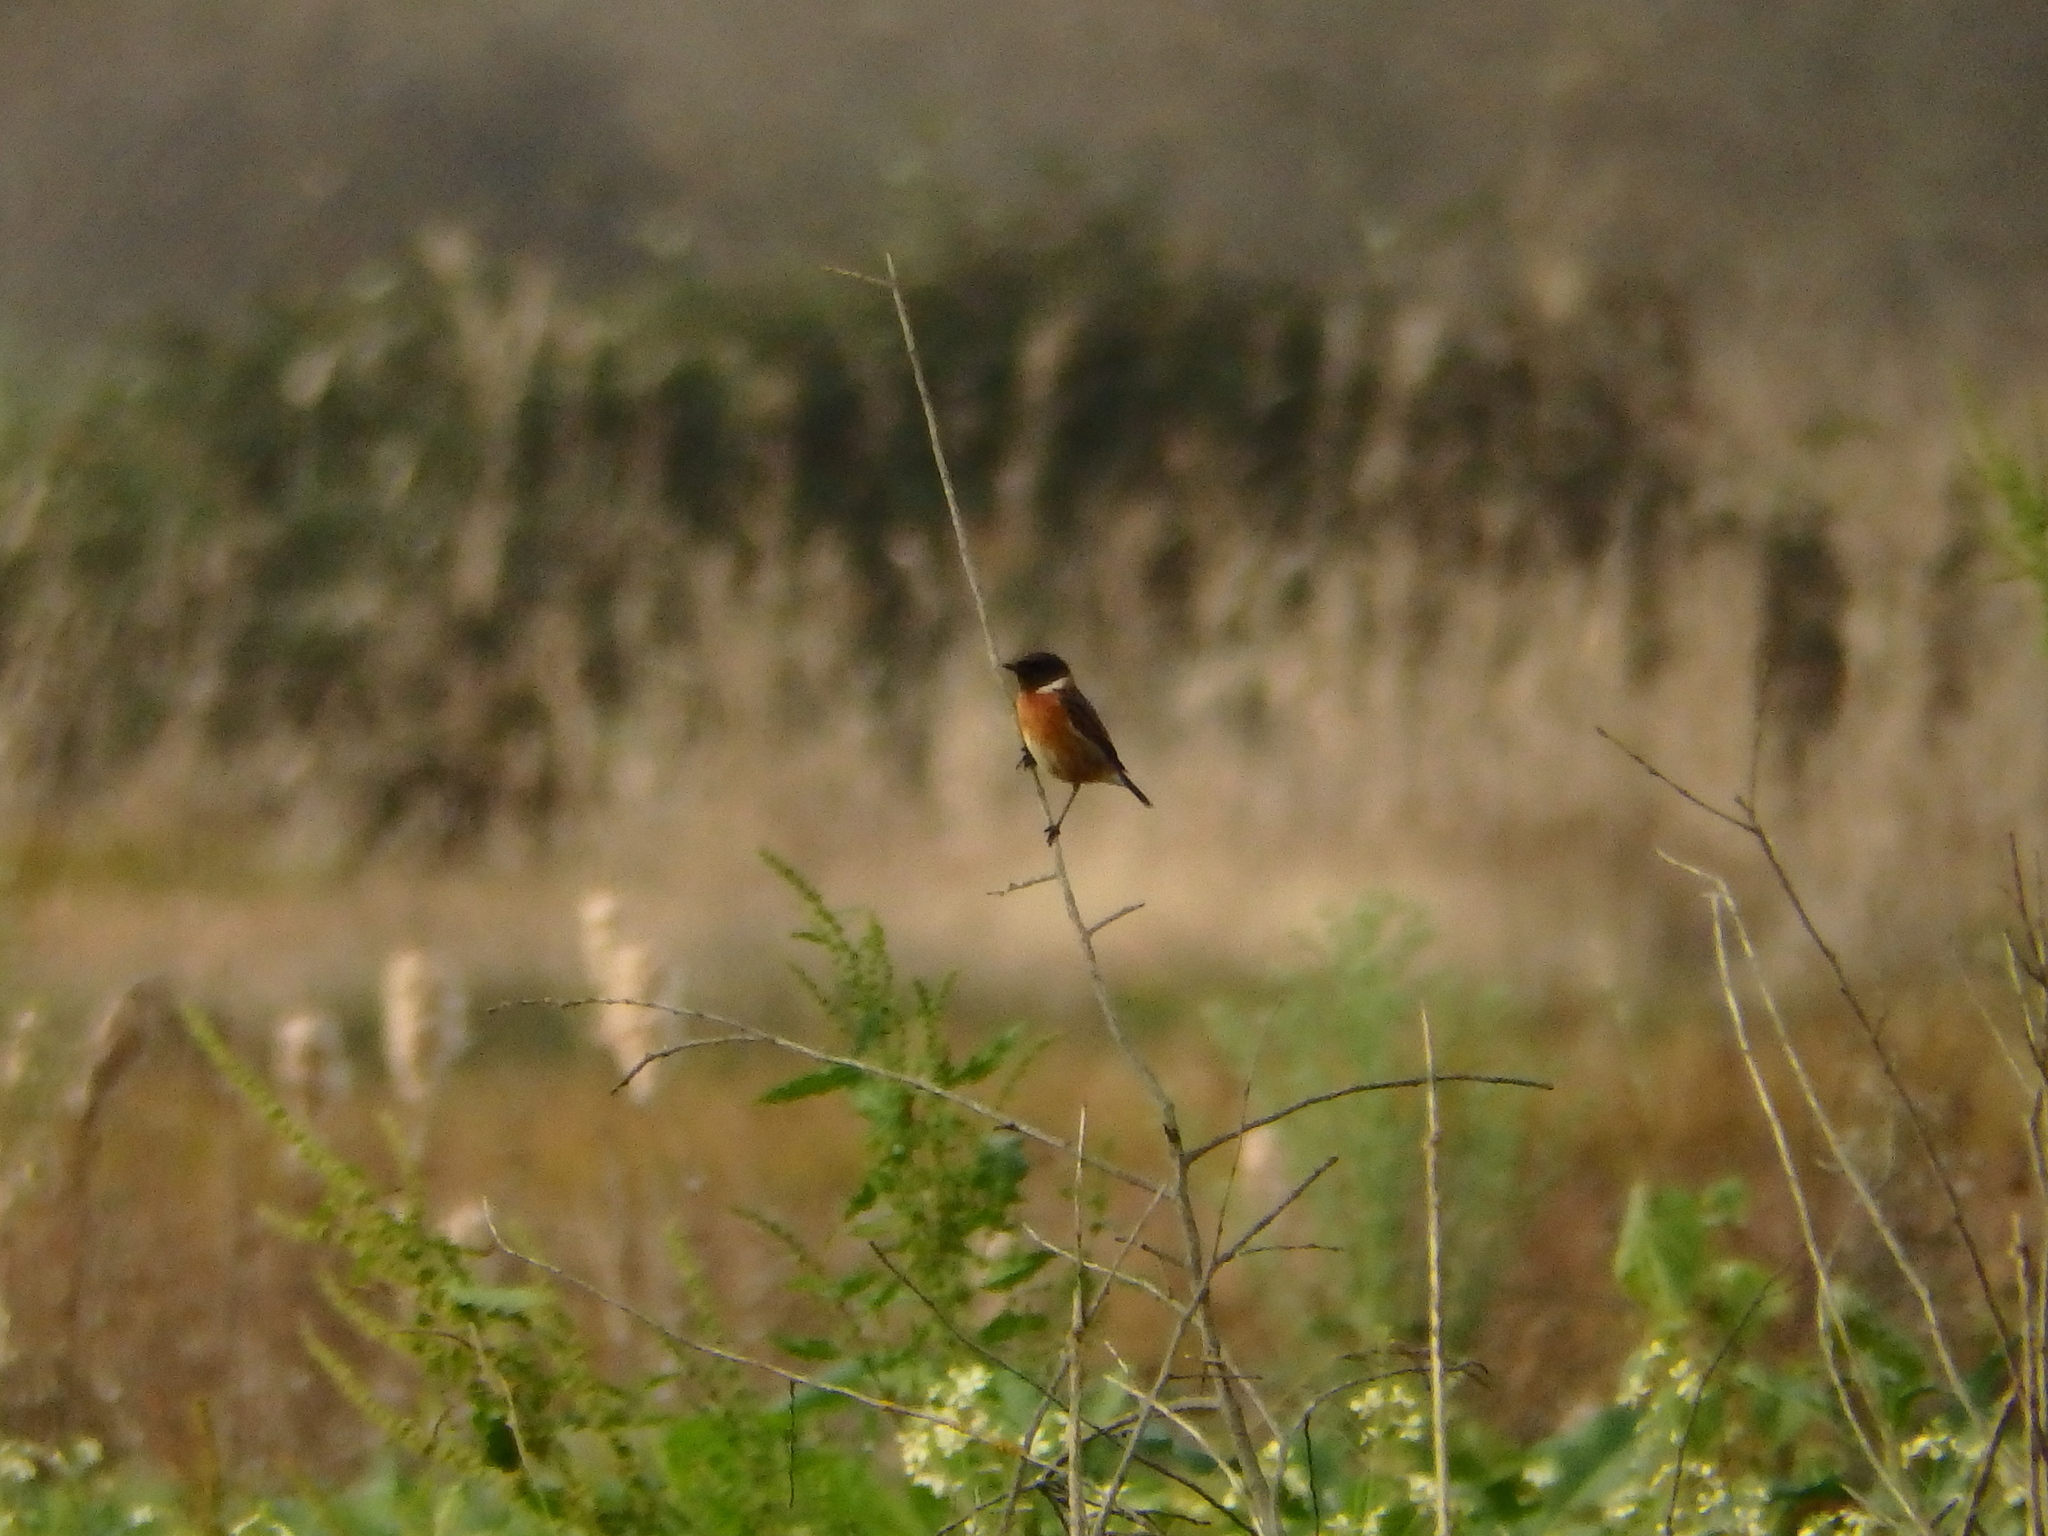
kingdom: Animalia
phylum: Chordata
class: Aves
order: Passeriformes
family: Muscicapidae
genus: Saxicola
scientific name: Saxicola rubicola
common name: European stonechat
